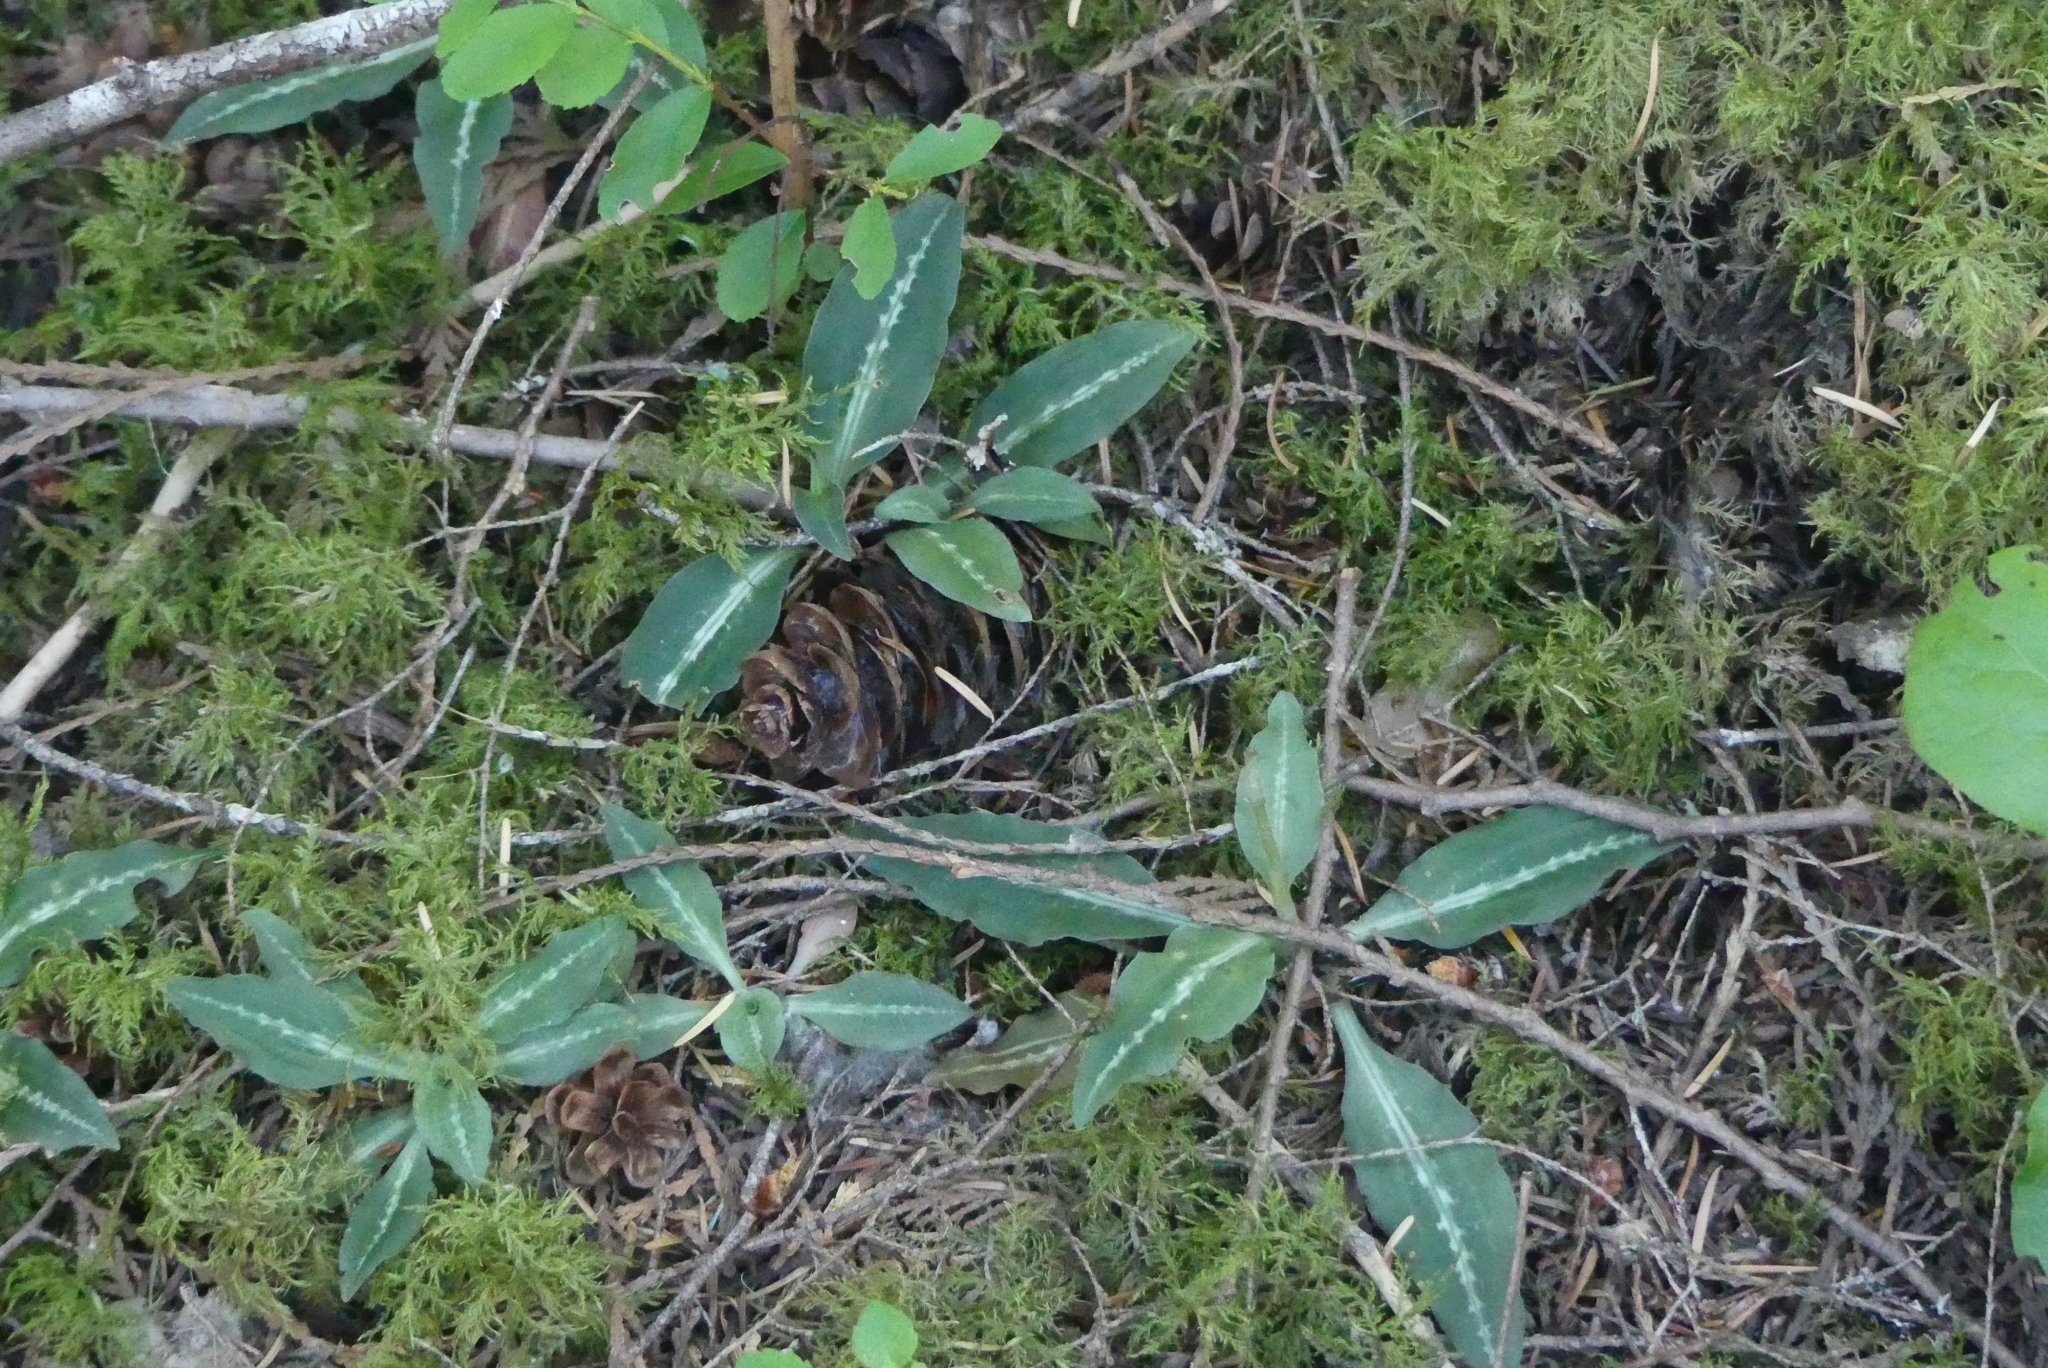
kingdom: Plantae
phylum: Tracheophyta
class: Liliopsida
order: Asparagales
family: Orchidaceae
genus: Goodyera
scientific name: Goodyera oblongifolia
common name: Giant rattlesnake-plantain
